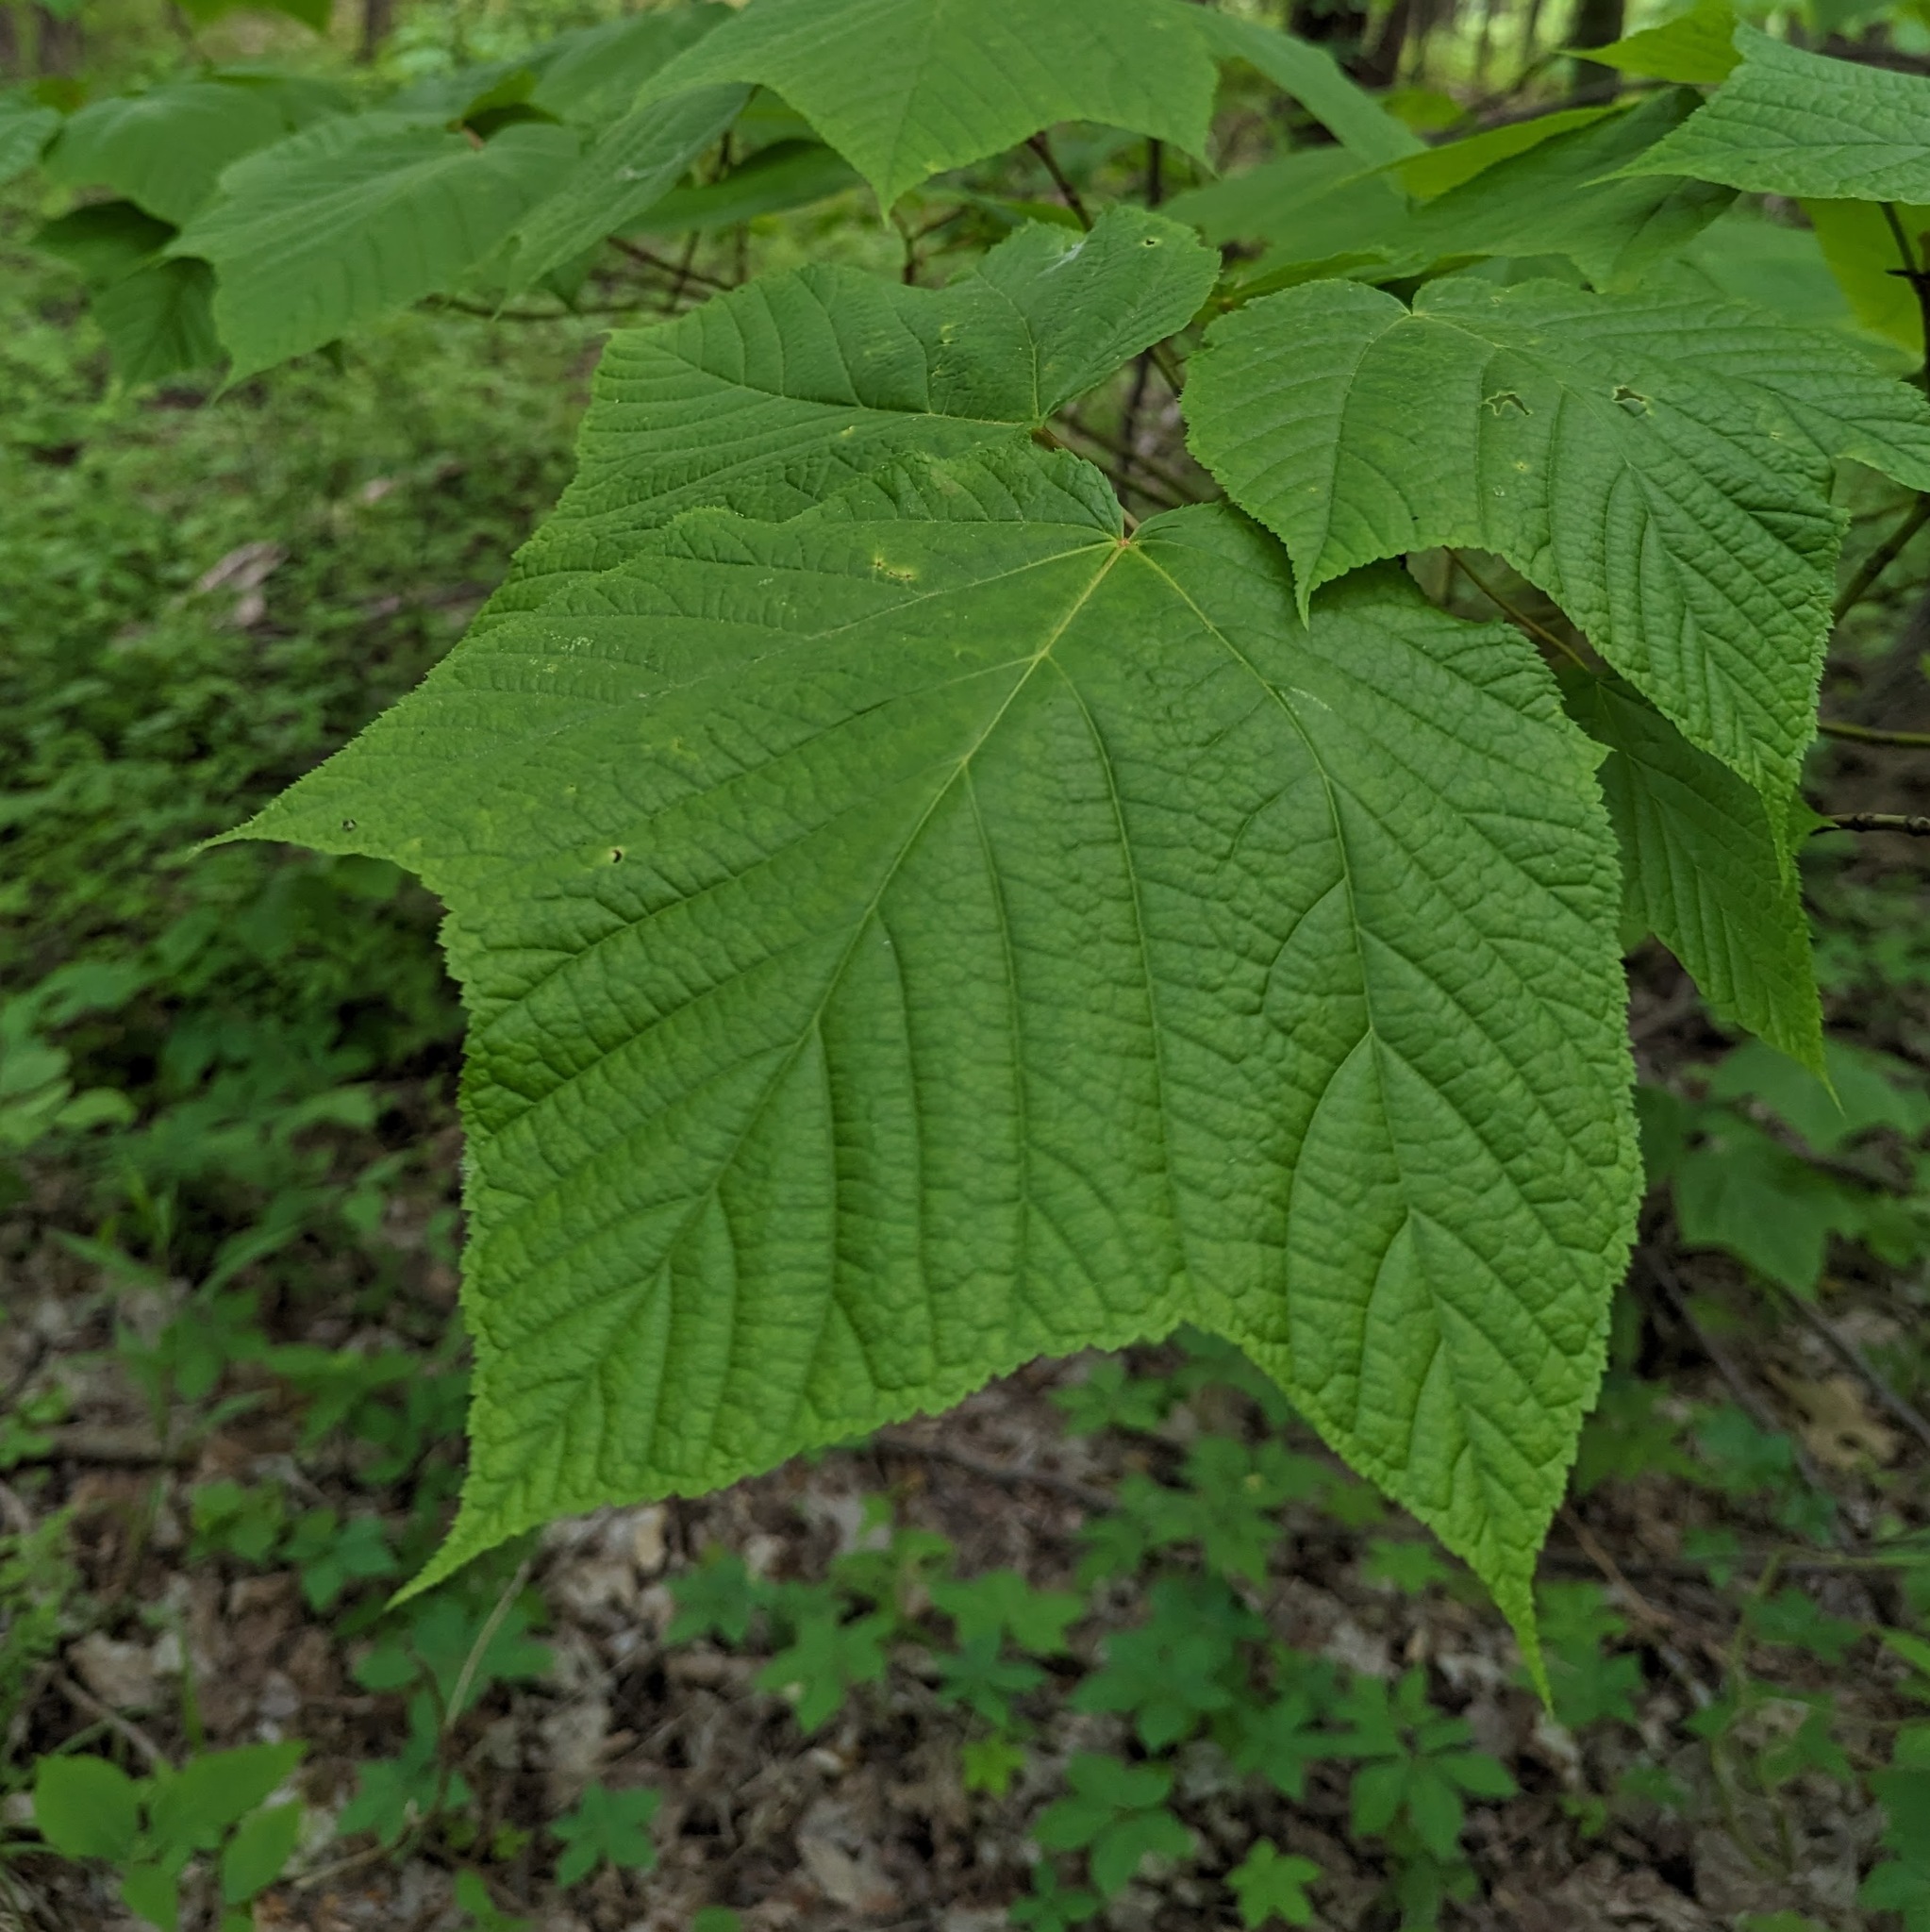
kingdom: Plantae
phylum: Tracheophyta
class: Magnoliopsida
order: Sapindales
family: Sapindaceae
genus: Acer
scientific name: Acer pensylvanicum
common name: Moosewood
